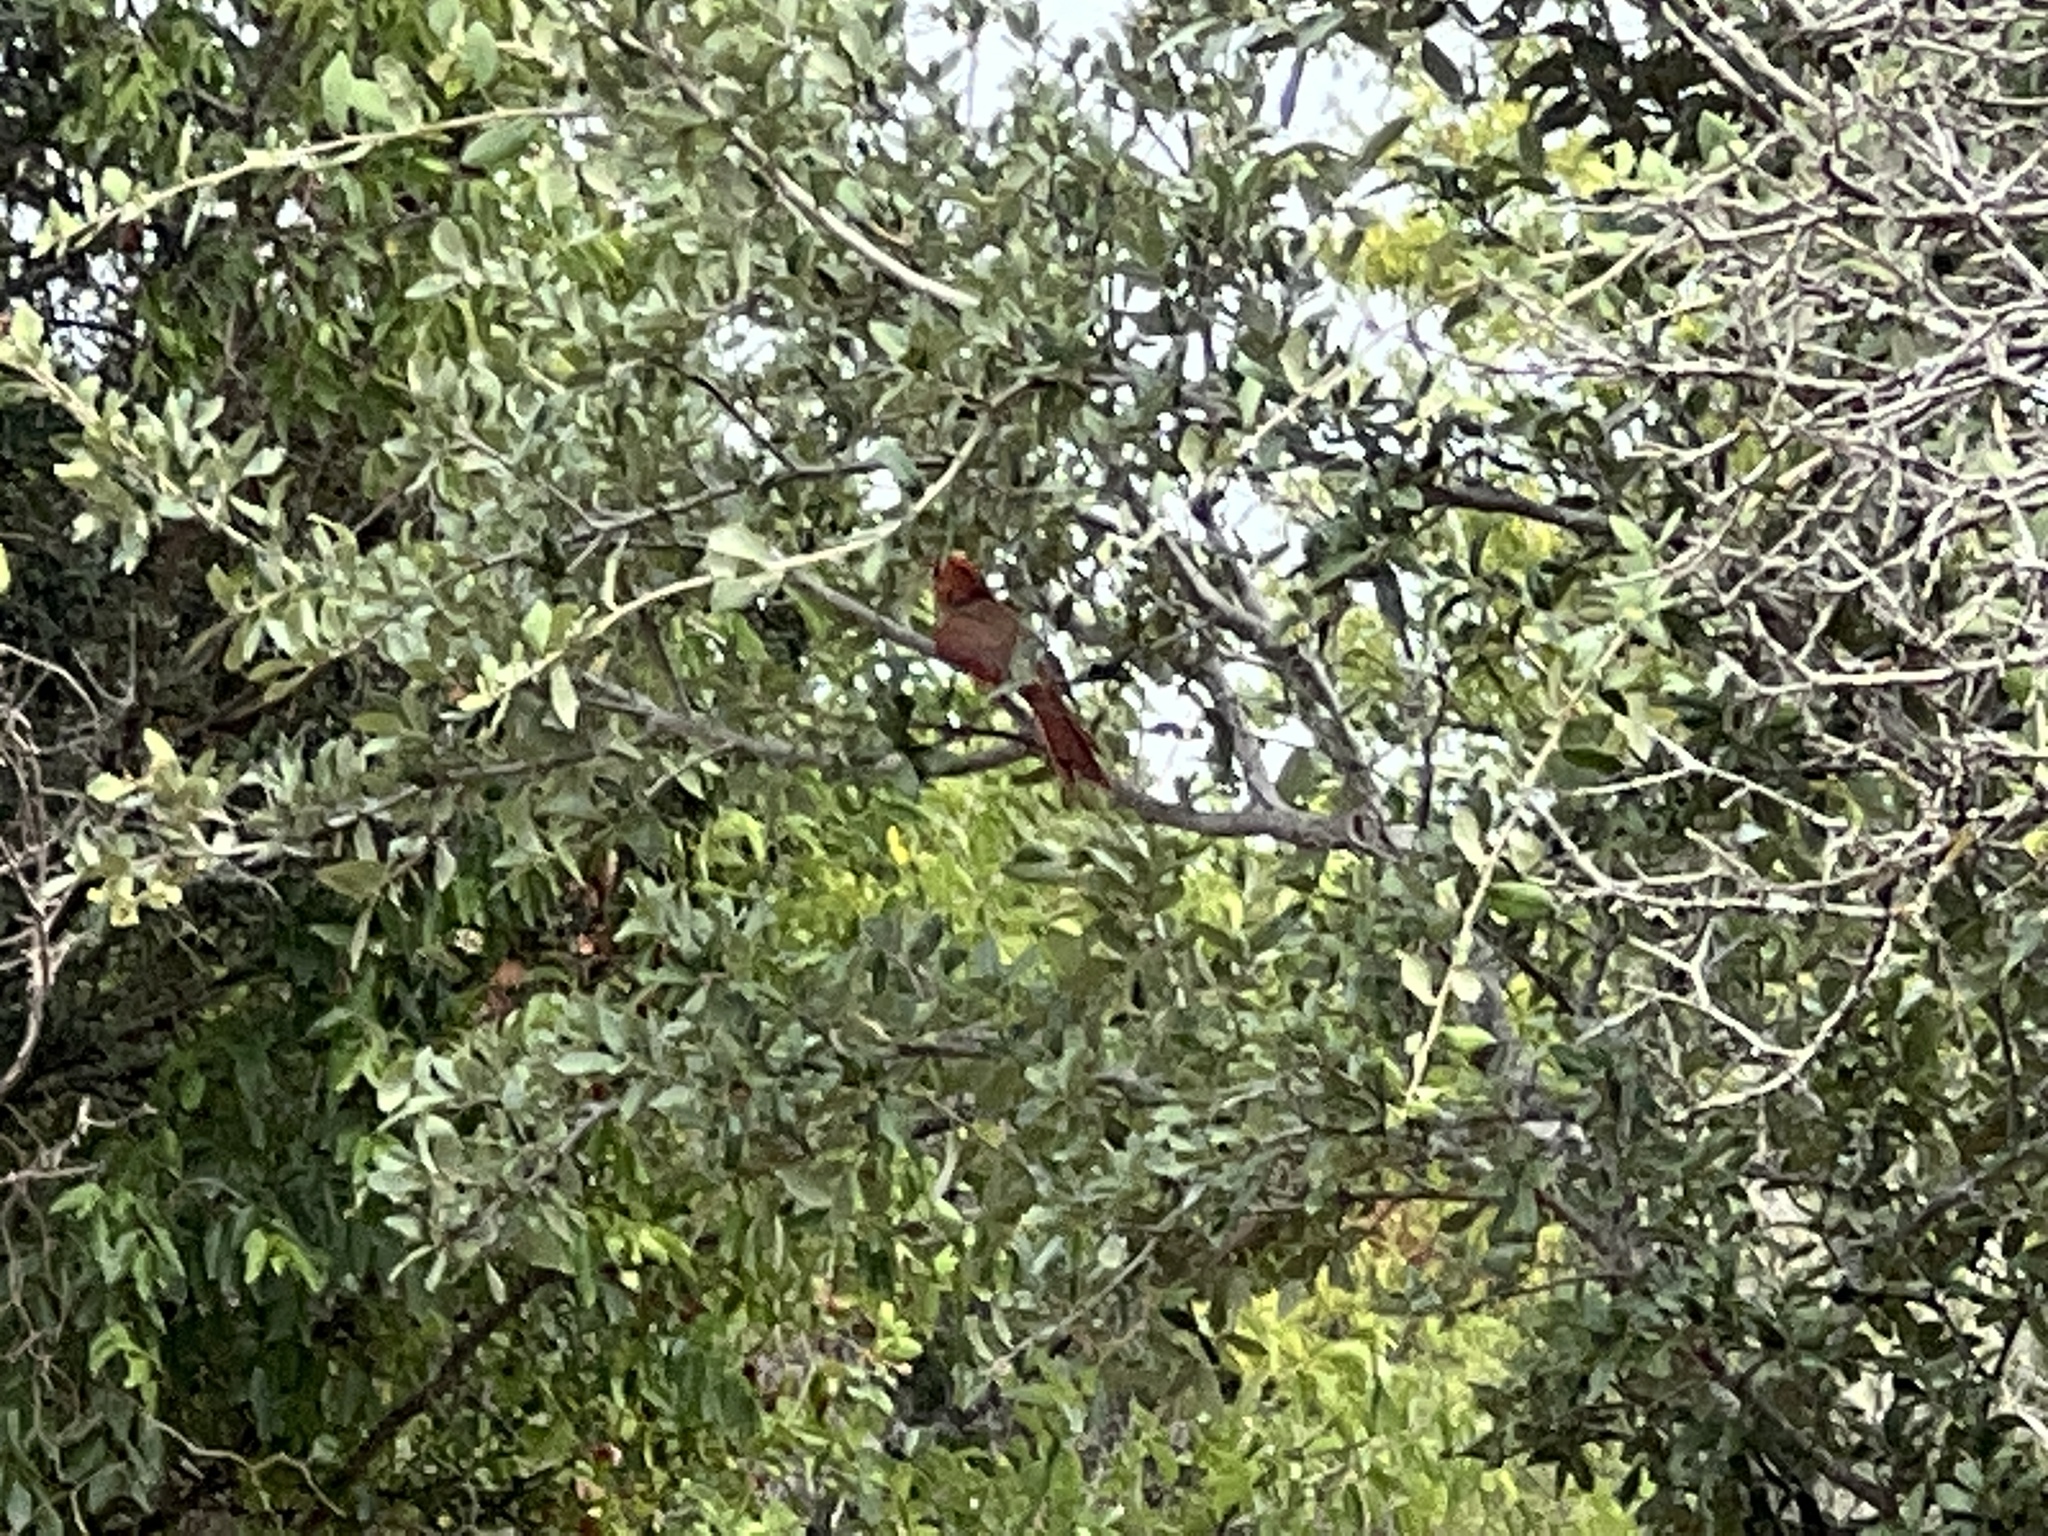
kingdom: Animalia
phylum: Chordata
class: Aves
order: Passeriformes
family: Cardinalidae
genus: Cardinalis
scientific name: Cardinalis cardinalis
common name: Northern cardinal
